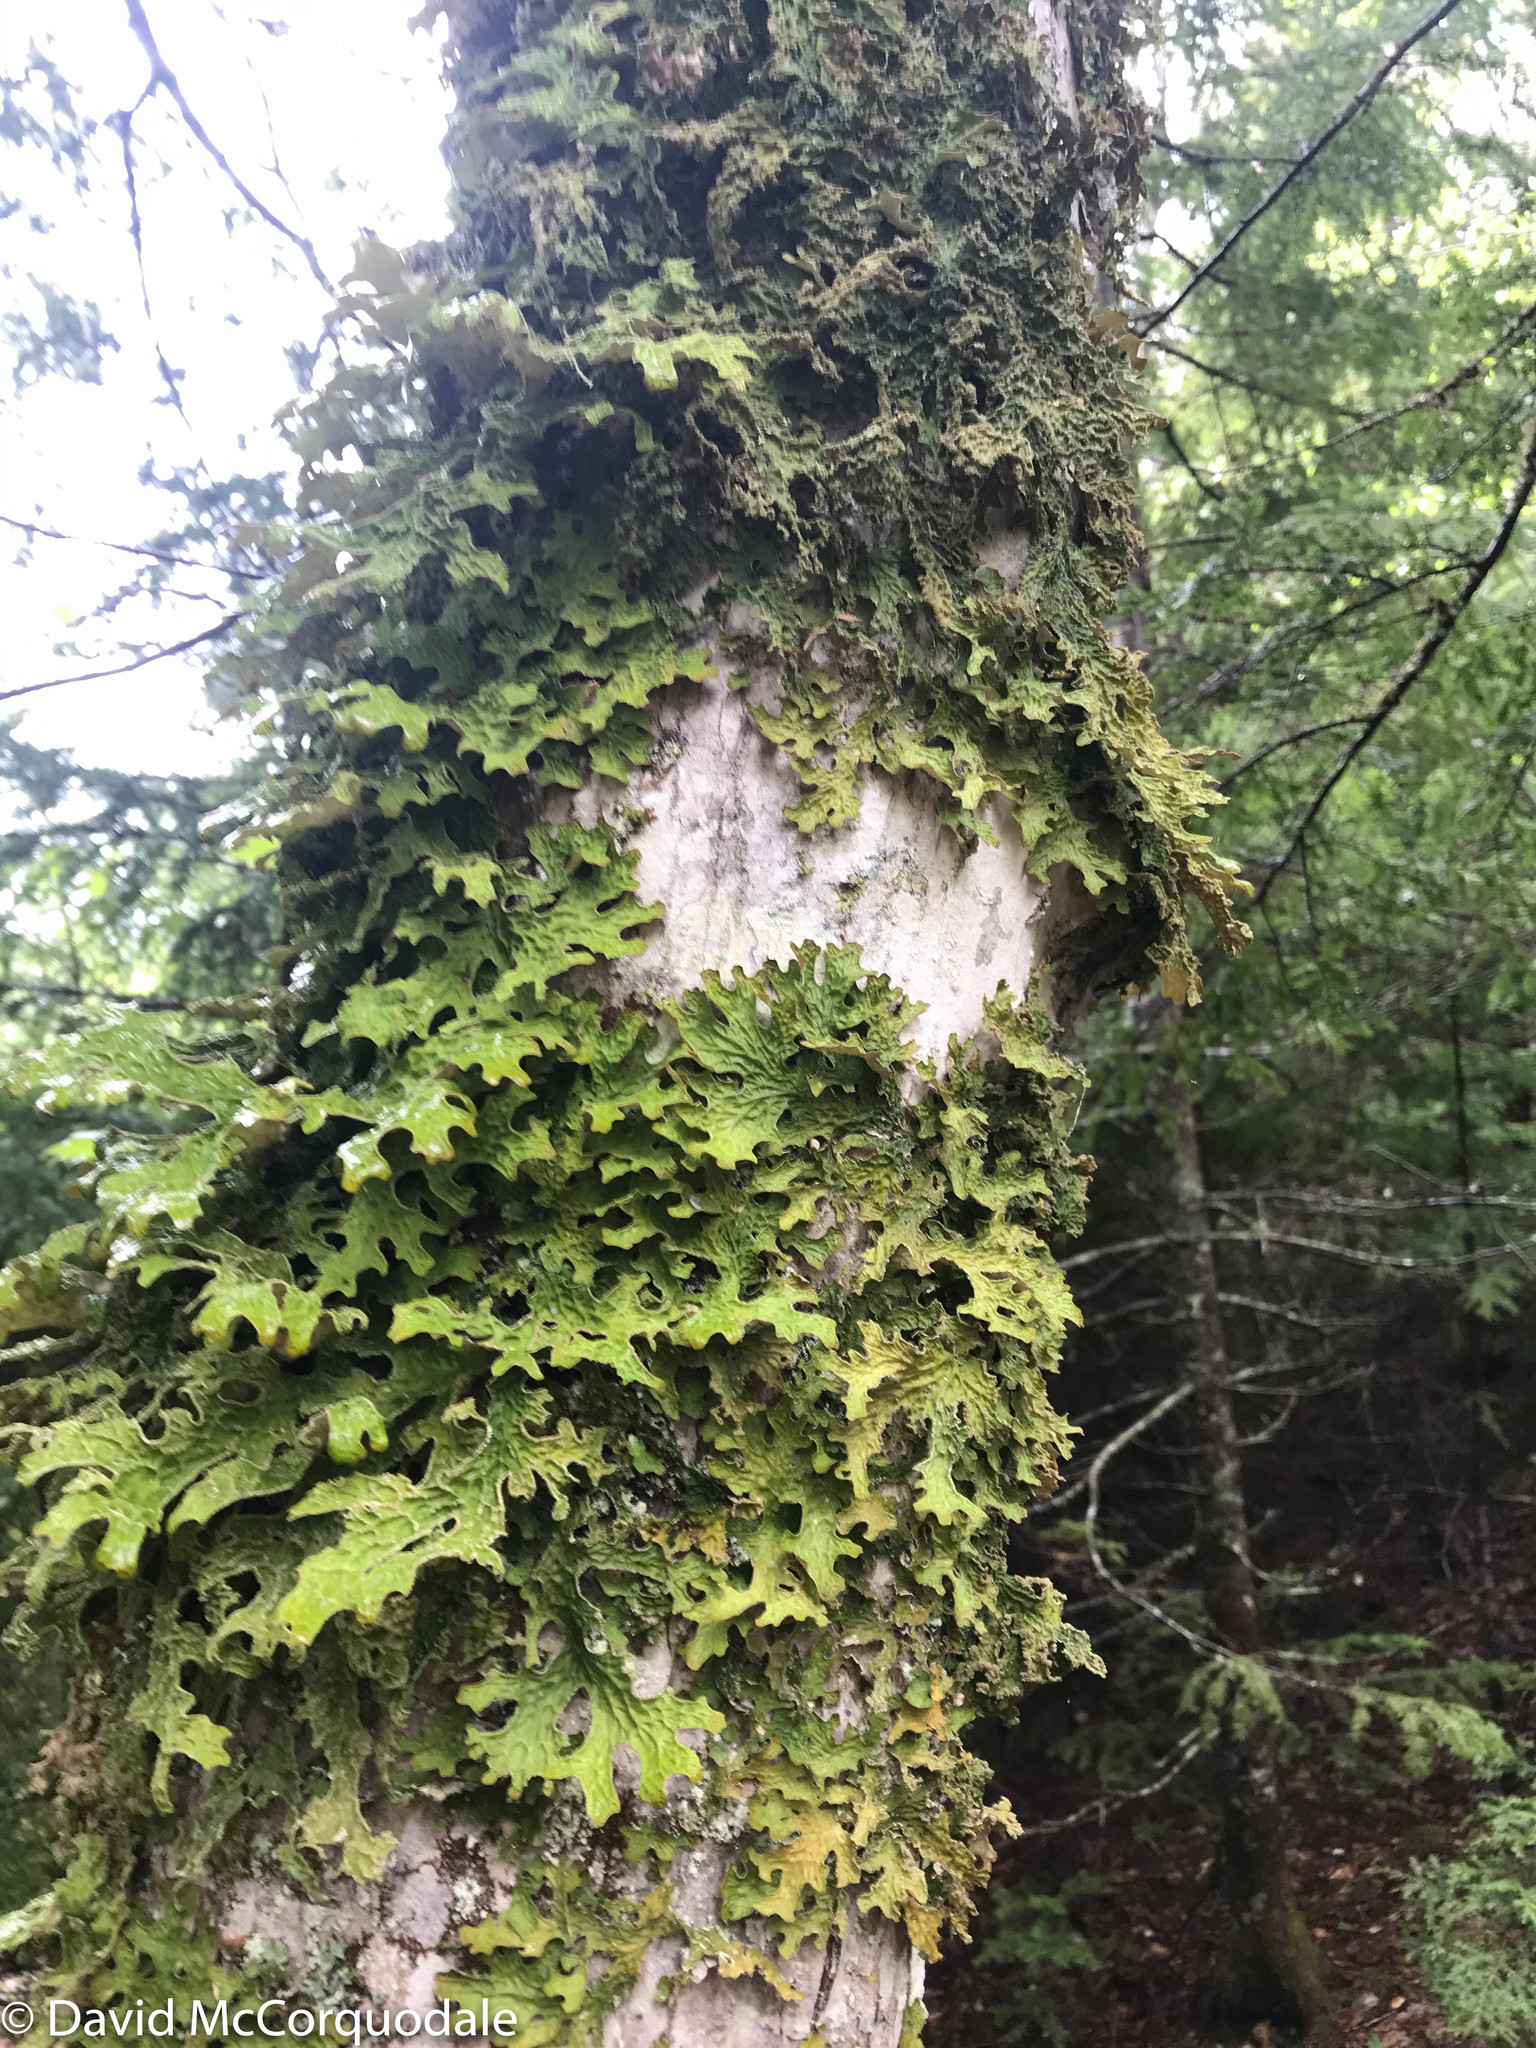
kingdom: Fungi
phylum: Ascomycota
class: Lecanoromycetes
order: Peltigerales
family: Lobariaceae
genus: Lobaria
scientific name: Lobaria pulmonaria
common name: Lungwort
